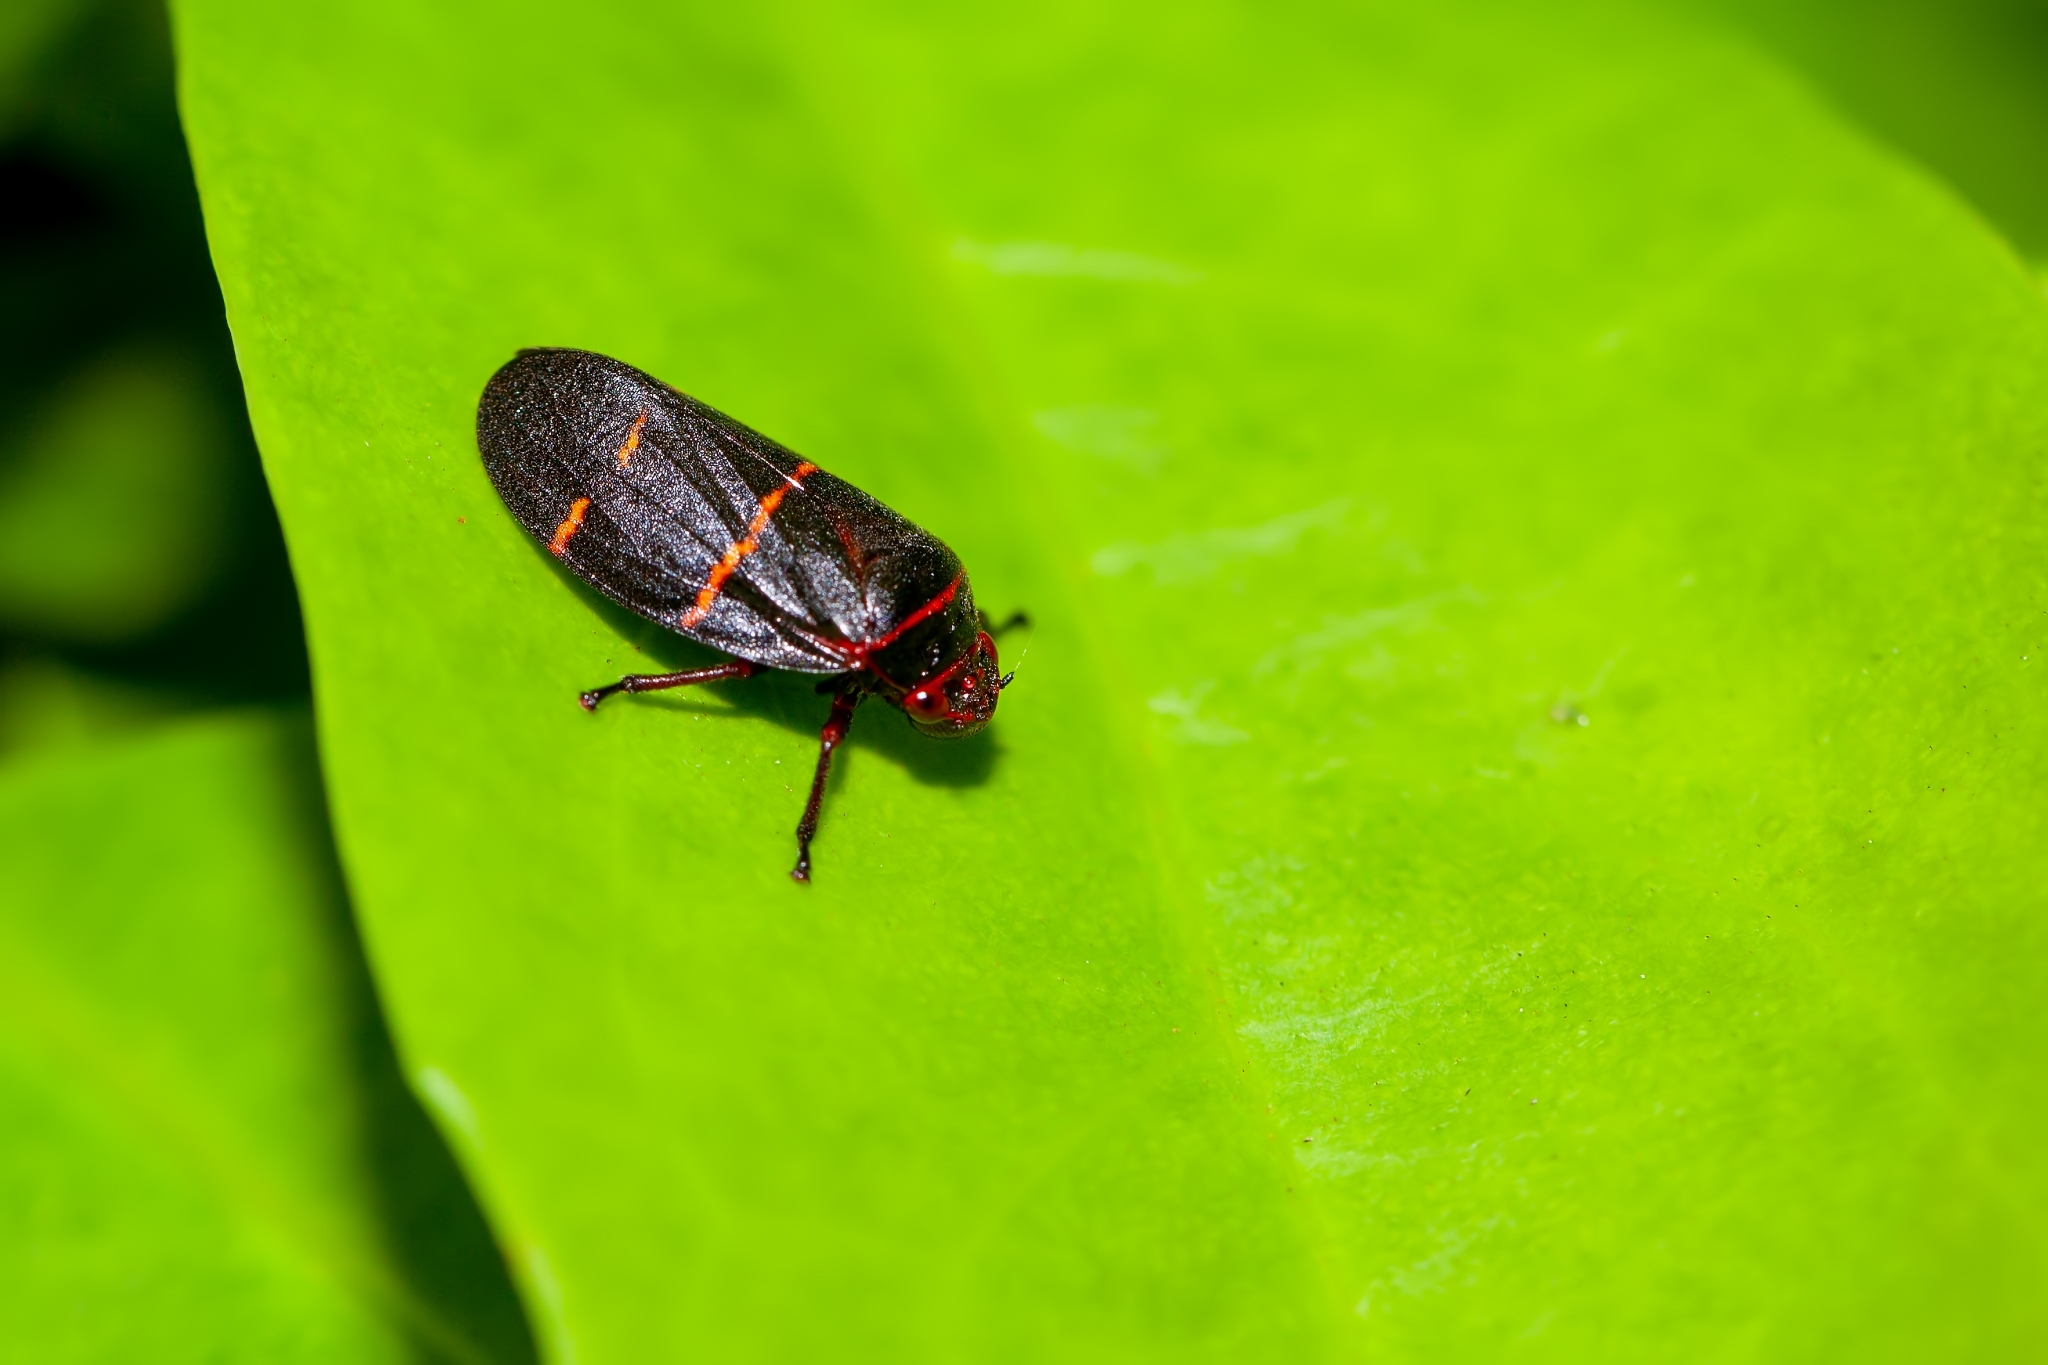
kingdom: Animalia
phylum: Arthropoda
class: Insecta
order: Hemiptera
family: Cercopidae
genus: Prosapia
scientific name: Prosapia bicincta
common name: Twolined spittlebug
